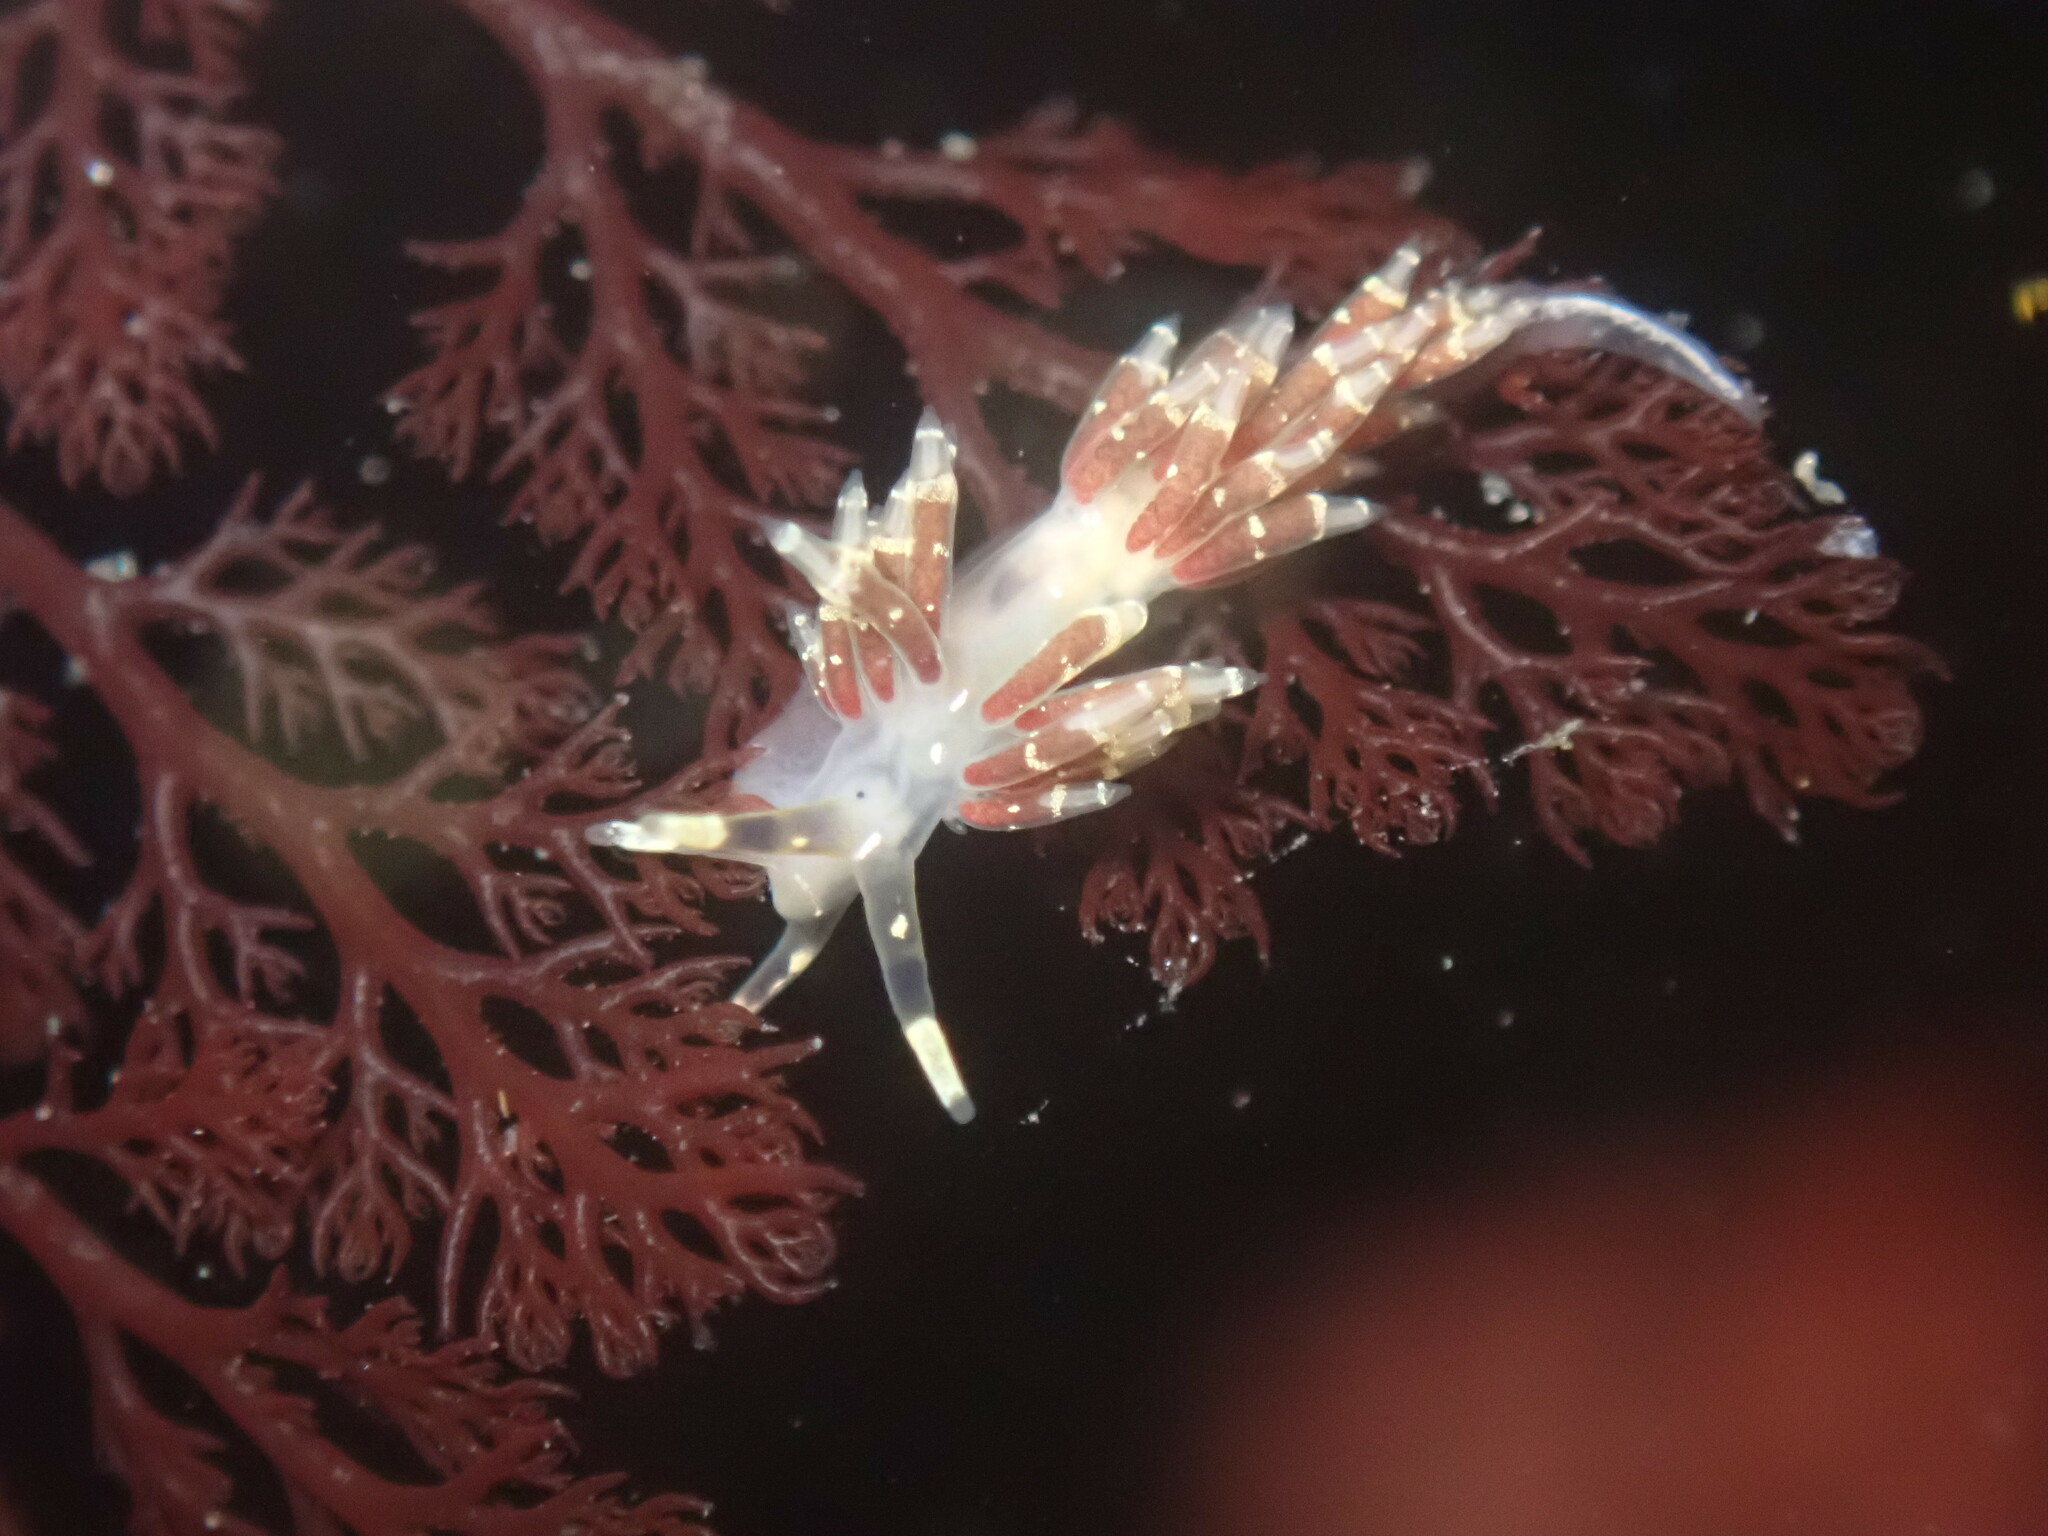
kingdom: Animalia
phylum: Mollusca
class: Gastropoda
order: Nudibranchia
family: Abronicidae
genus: Abronica
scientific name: Abronica abronia
